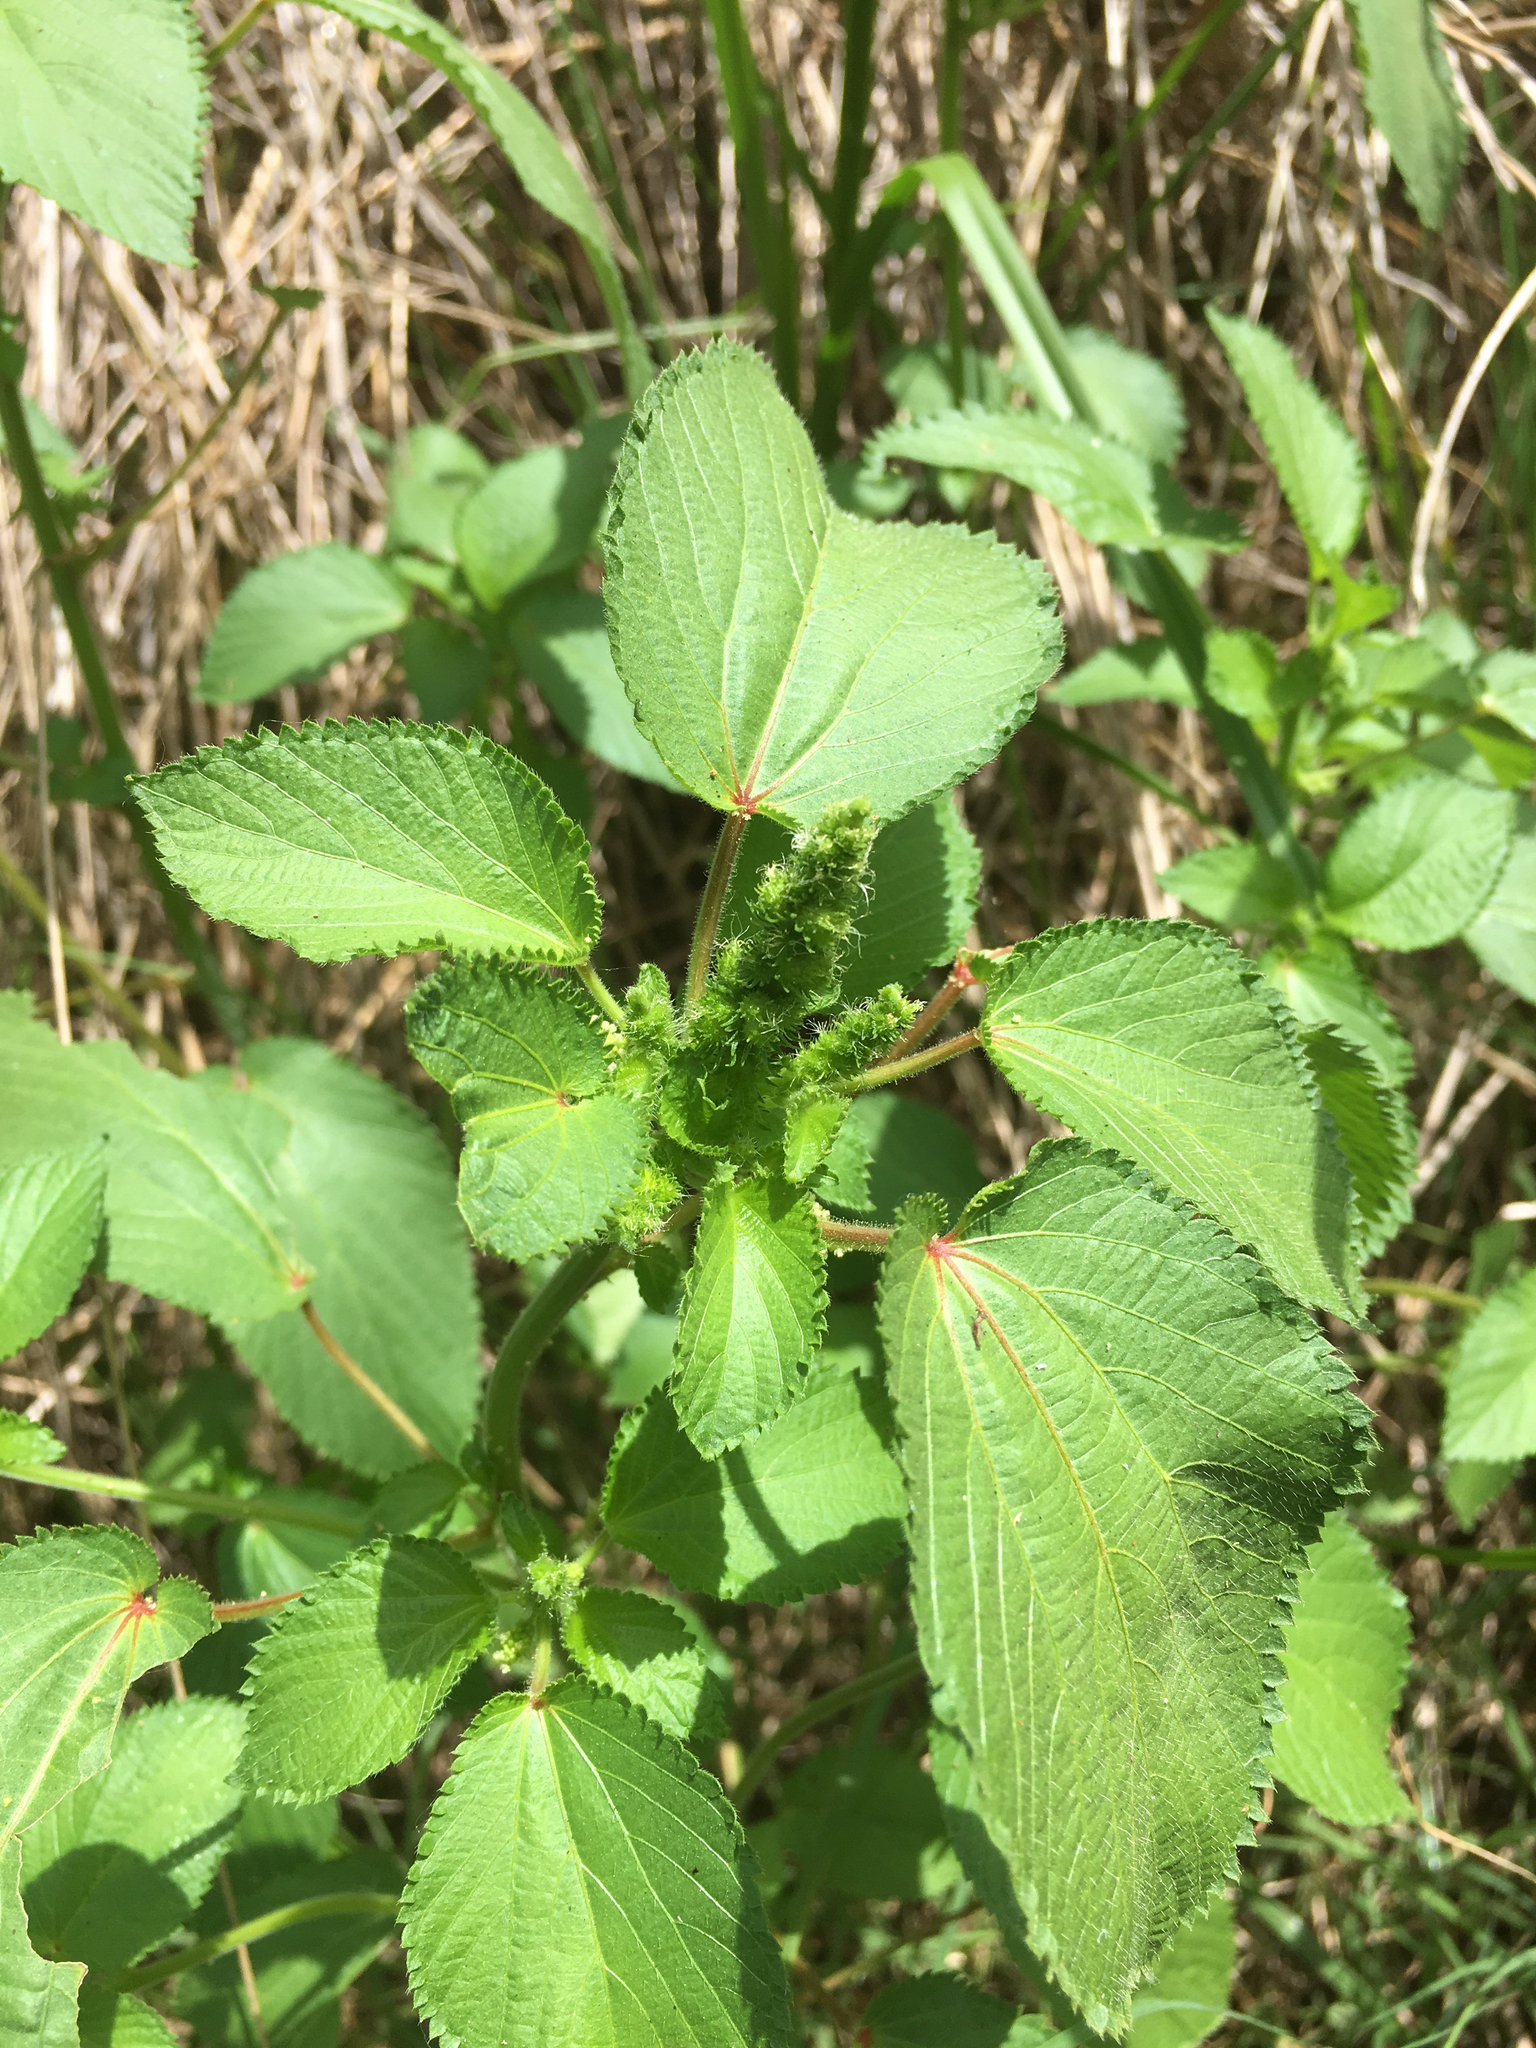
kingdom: Plantae
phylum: Tracheophyta
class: Magnoliopsida
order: Malpighiales
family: Euphorbiaceae
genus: Acalypha
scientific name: Acalypha ostryifolia
